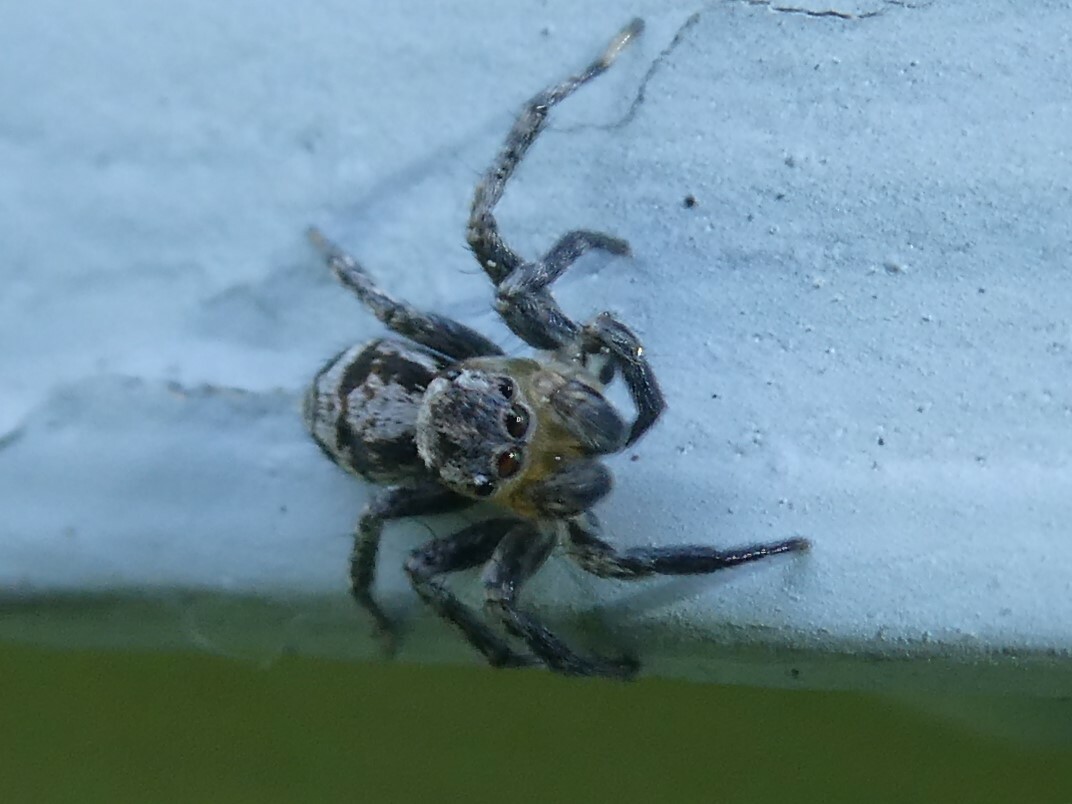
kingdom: Animalia
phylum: Arthropoda
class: Arachnida
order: Araneae
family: Salticidae
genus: Naphrys
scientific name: Naphrys pulex
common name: Flea jumping spider
